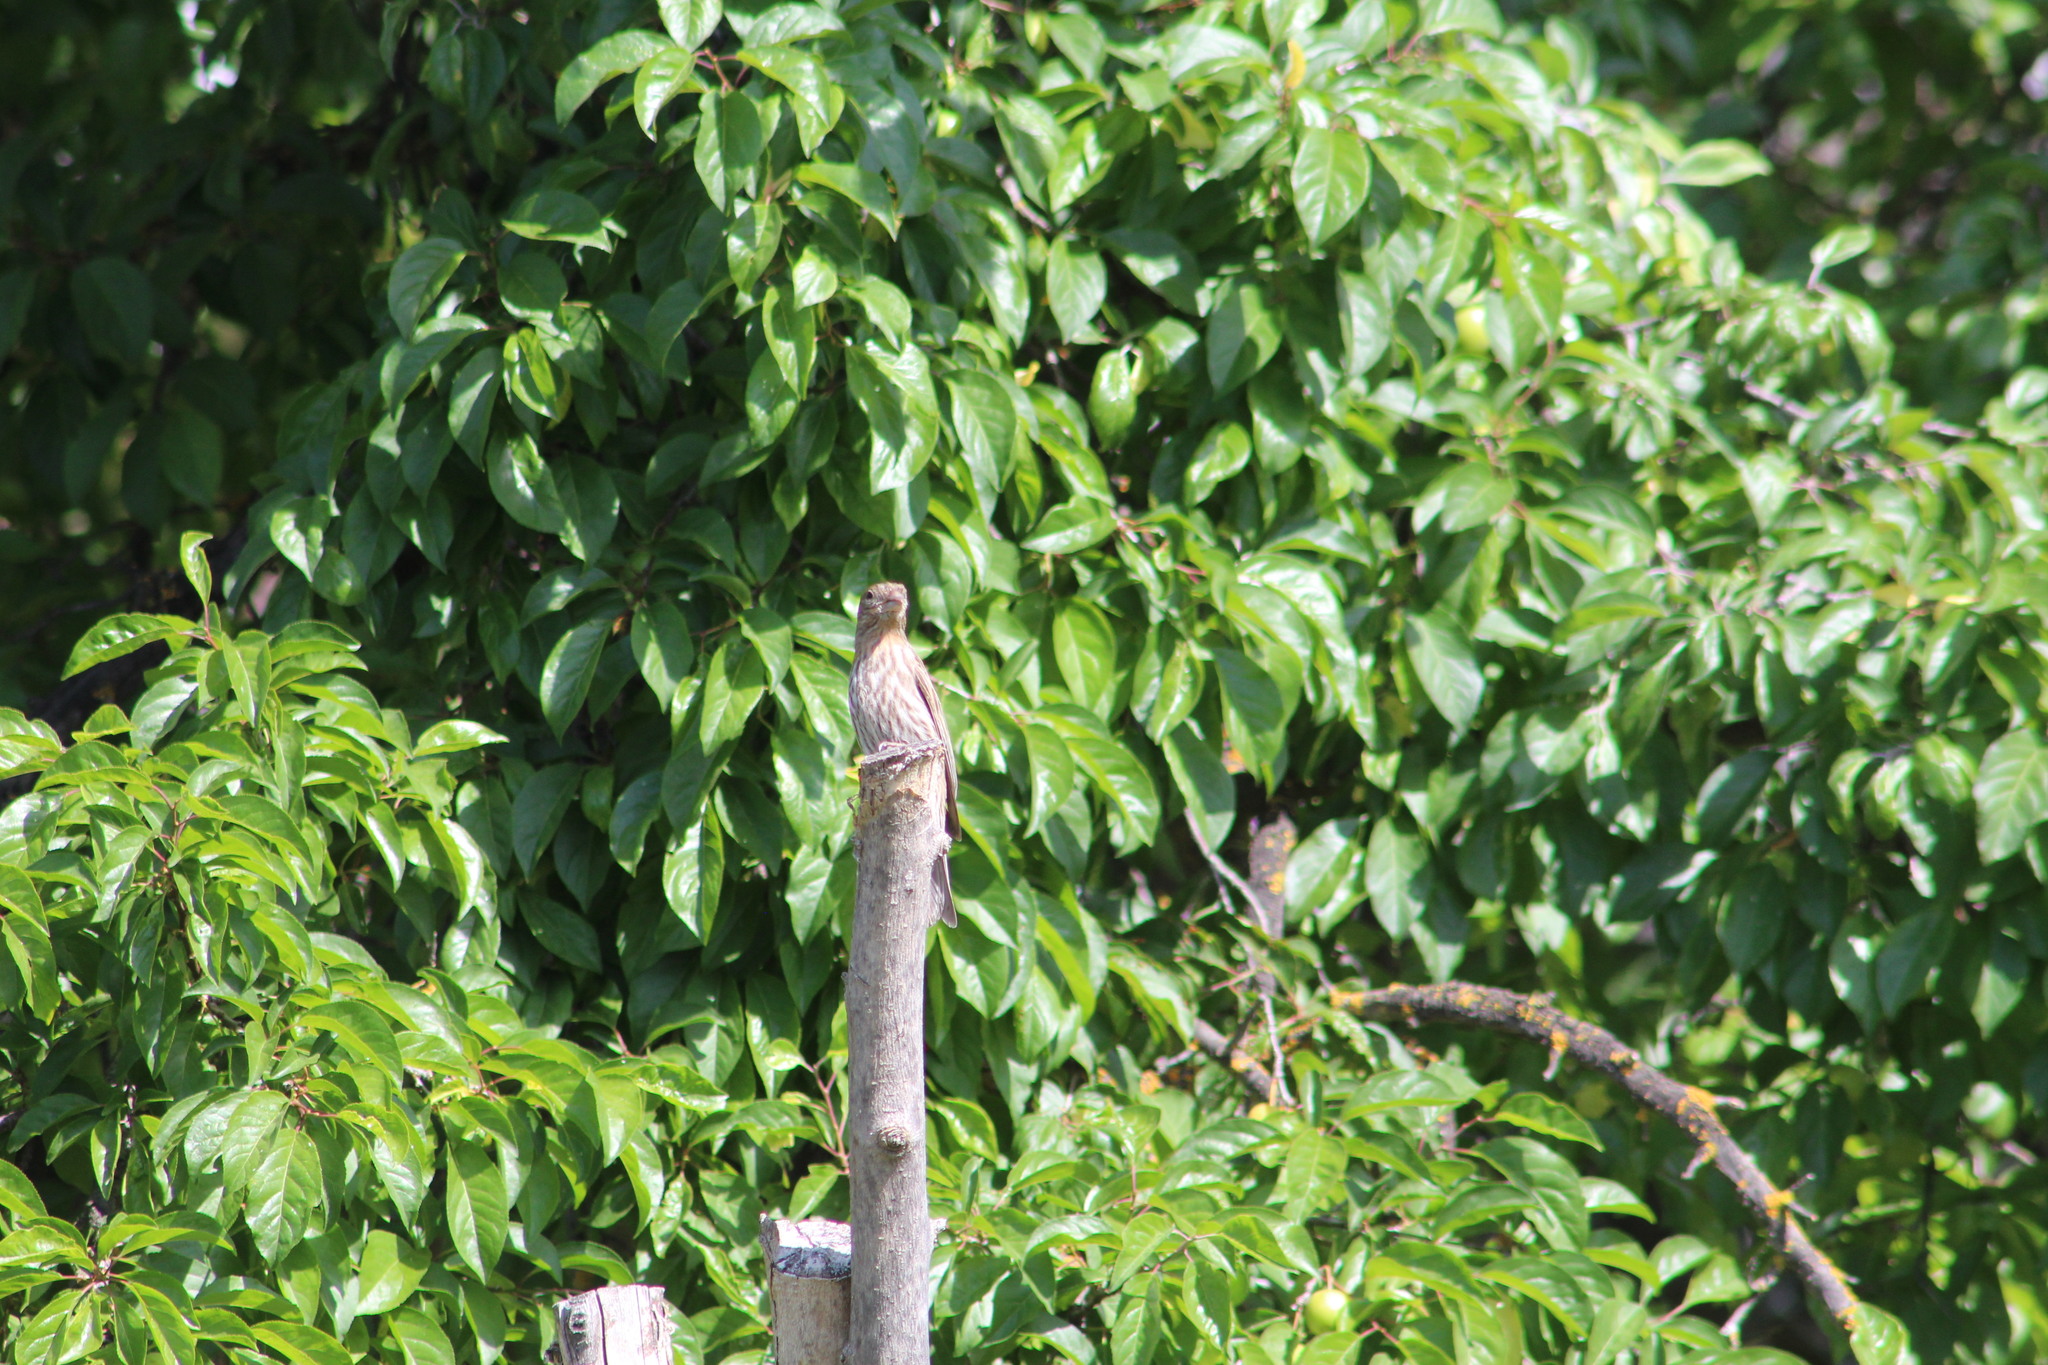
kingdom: Animalia
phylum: Chordata
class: Aves
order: Passeriformes
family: Fringillidae
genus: Haemorhous
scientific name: Haemorhous mexicanus
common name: House finch
